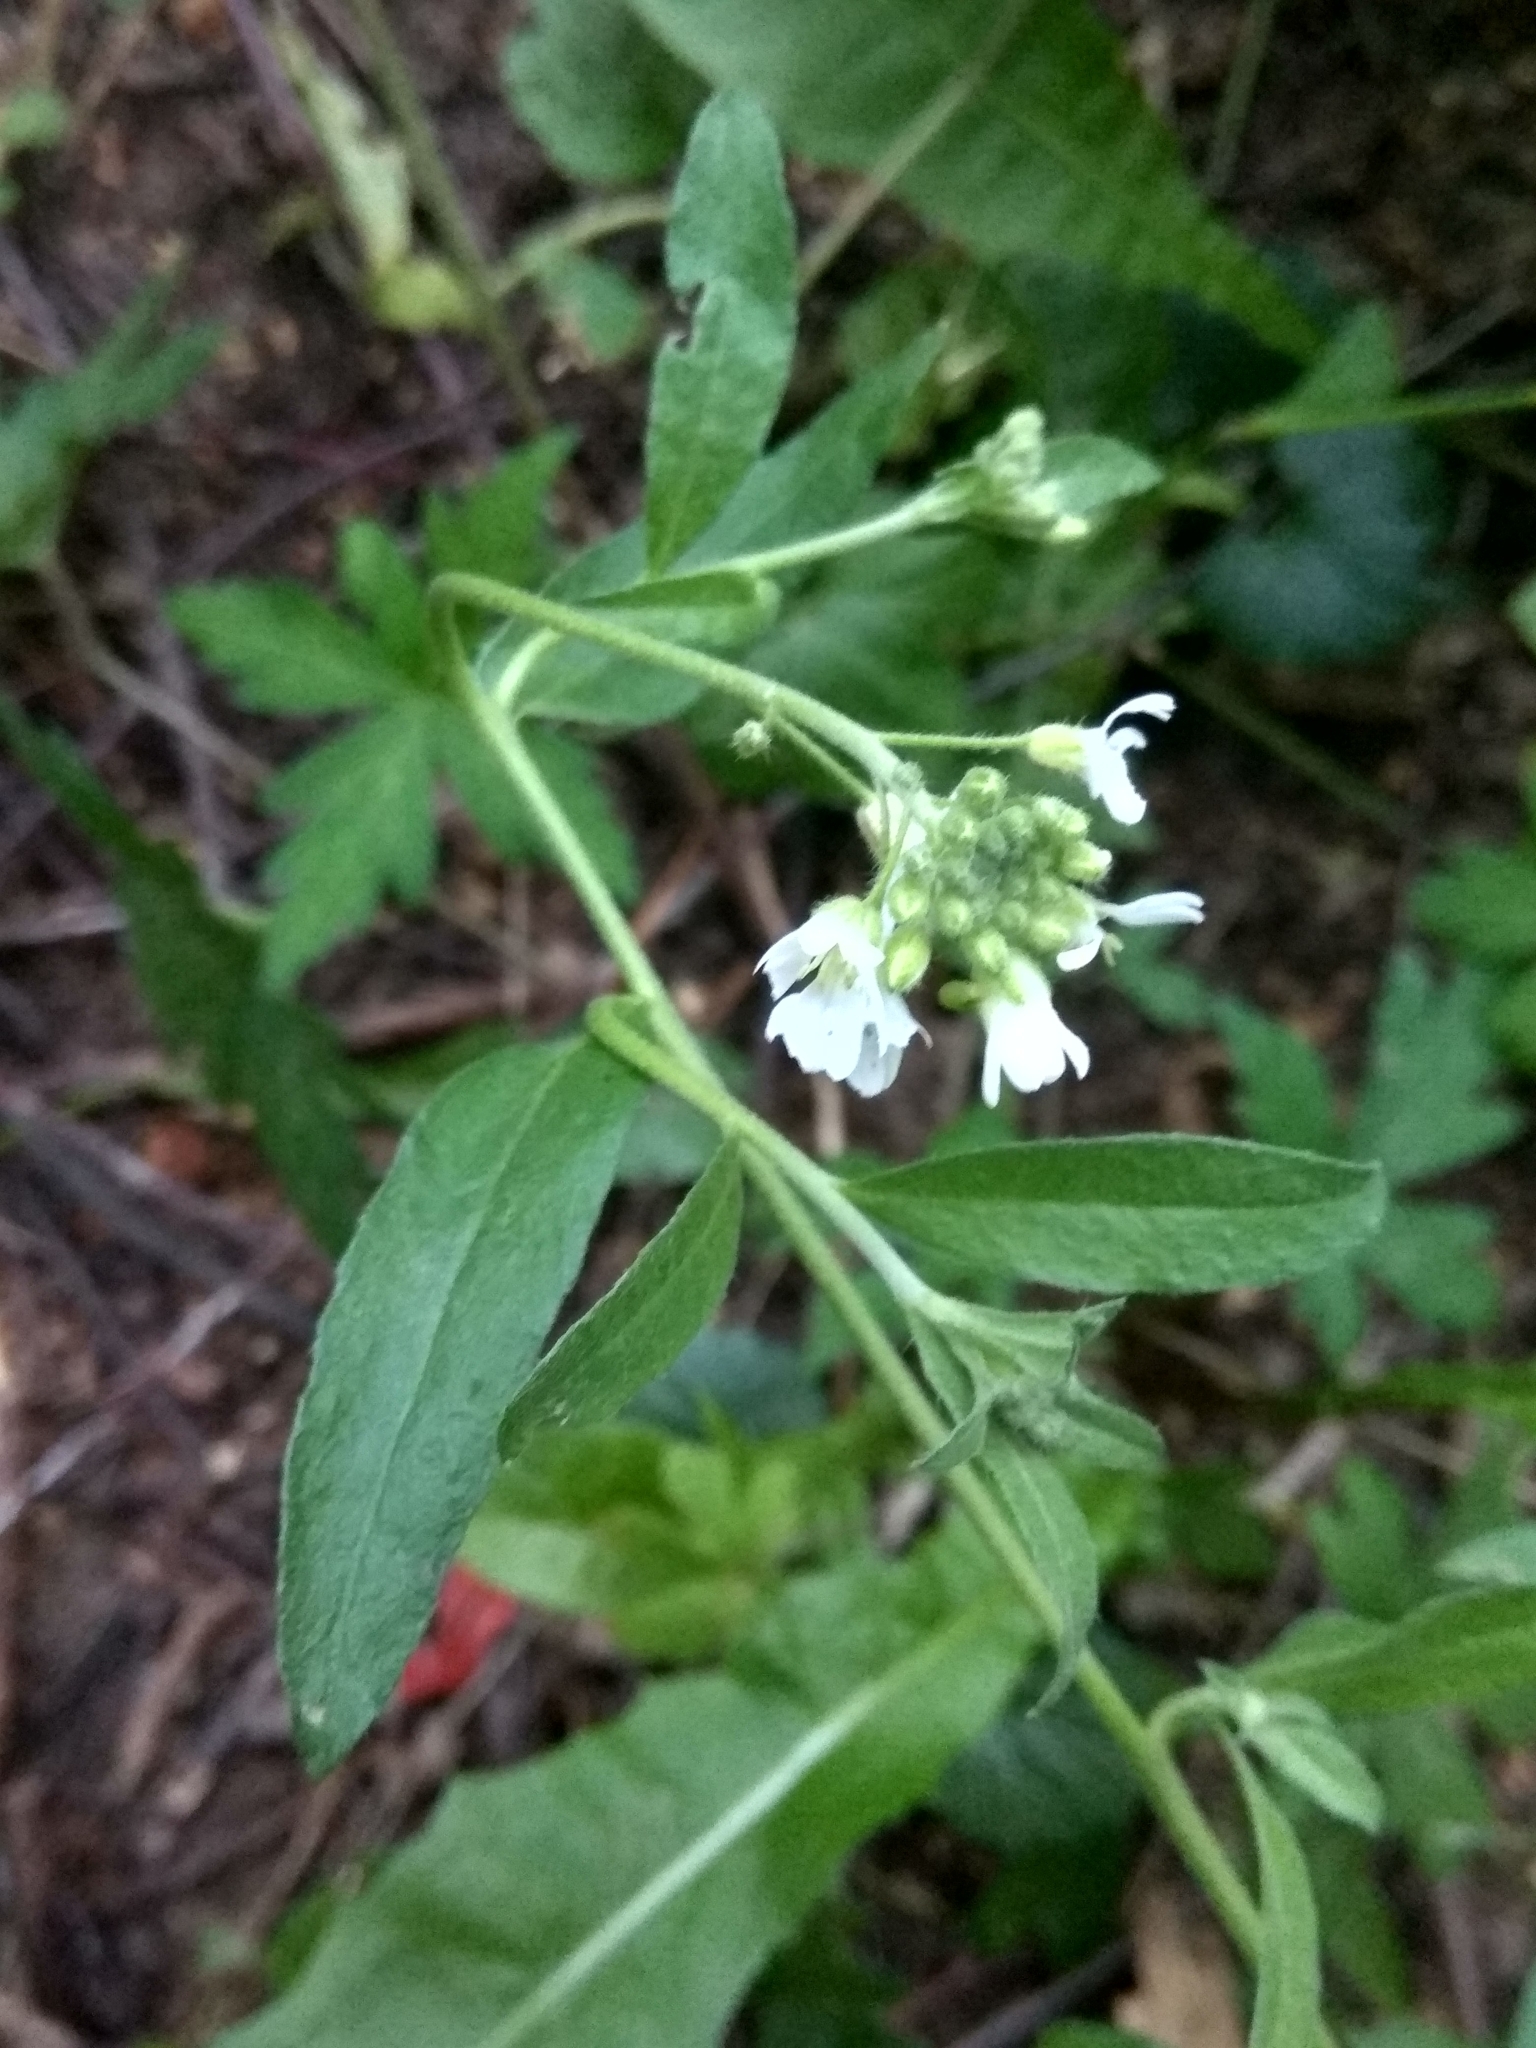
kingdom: Plantae
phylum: Tracheophyta
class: Magnoliopsida
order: Brassicales
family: Brassicaceae
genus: Berteroa
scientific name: Berteroa incana
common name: Hoary alison
